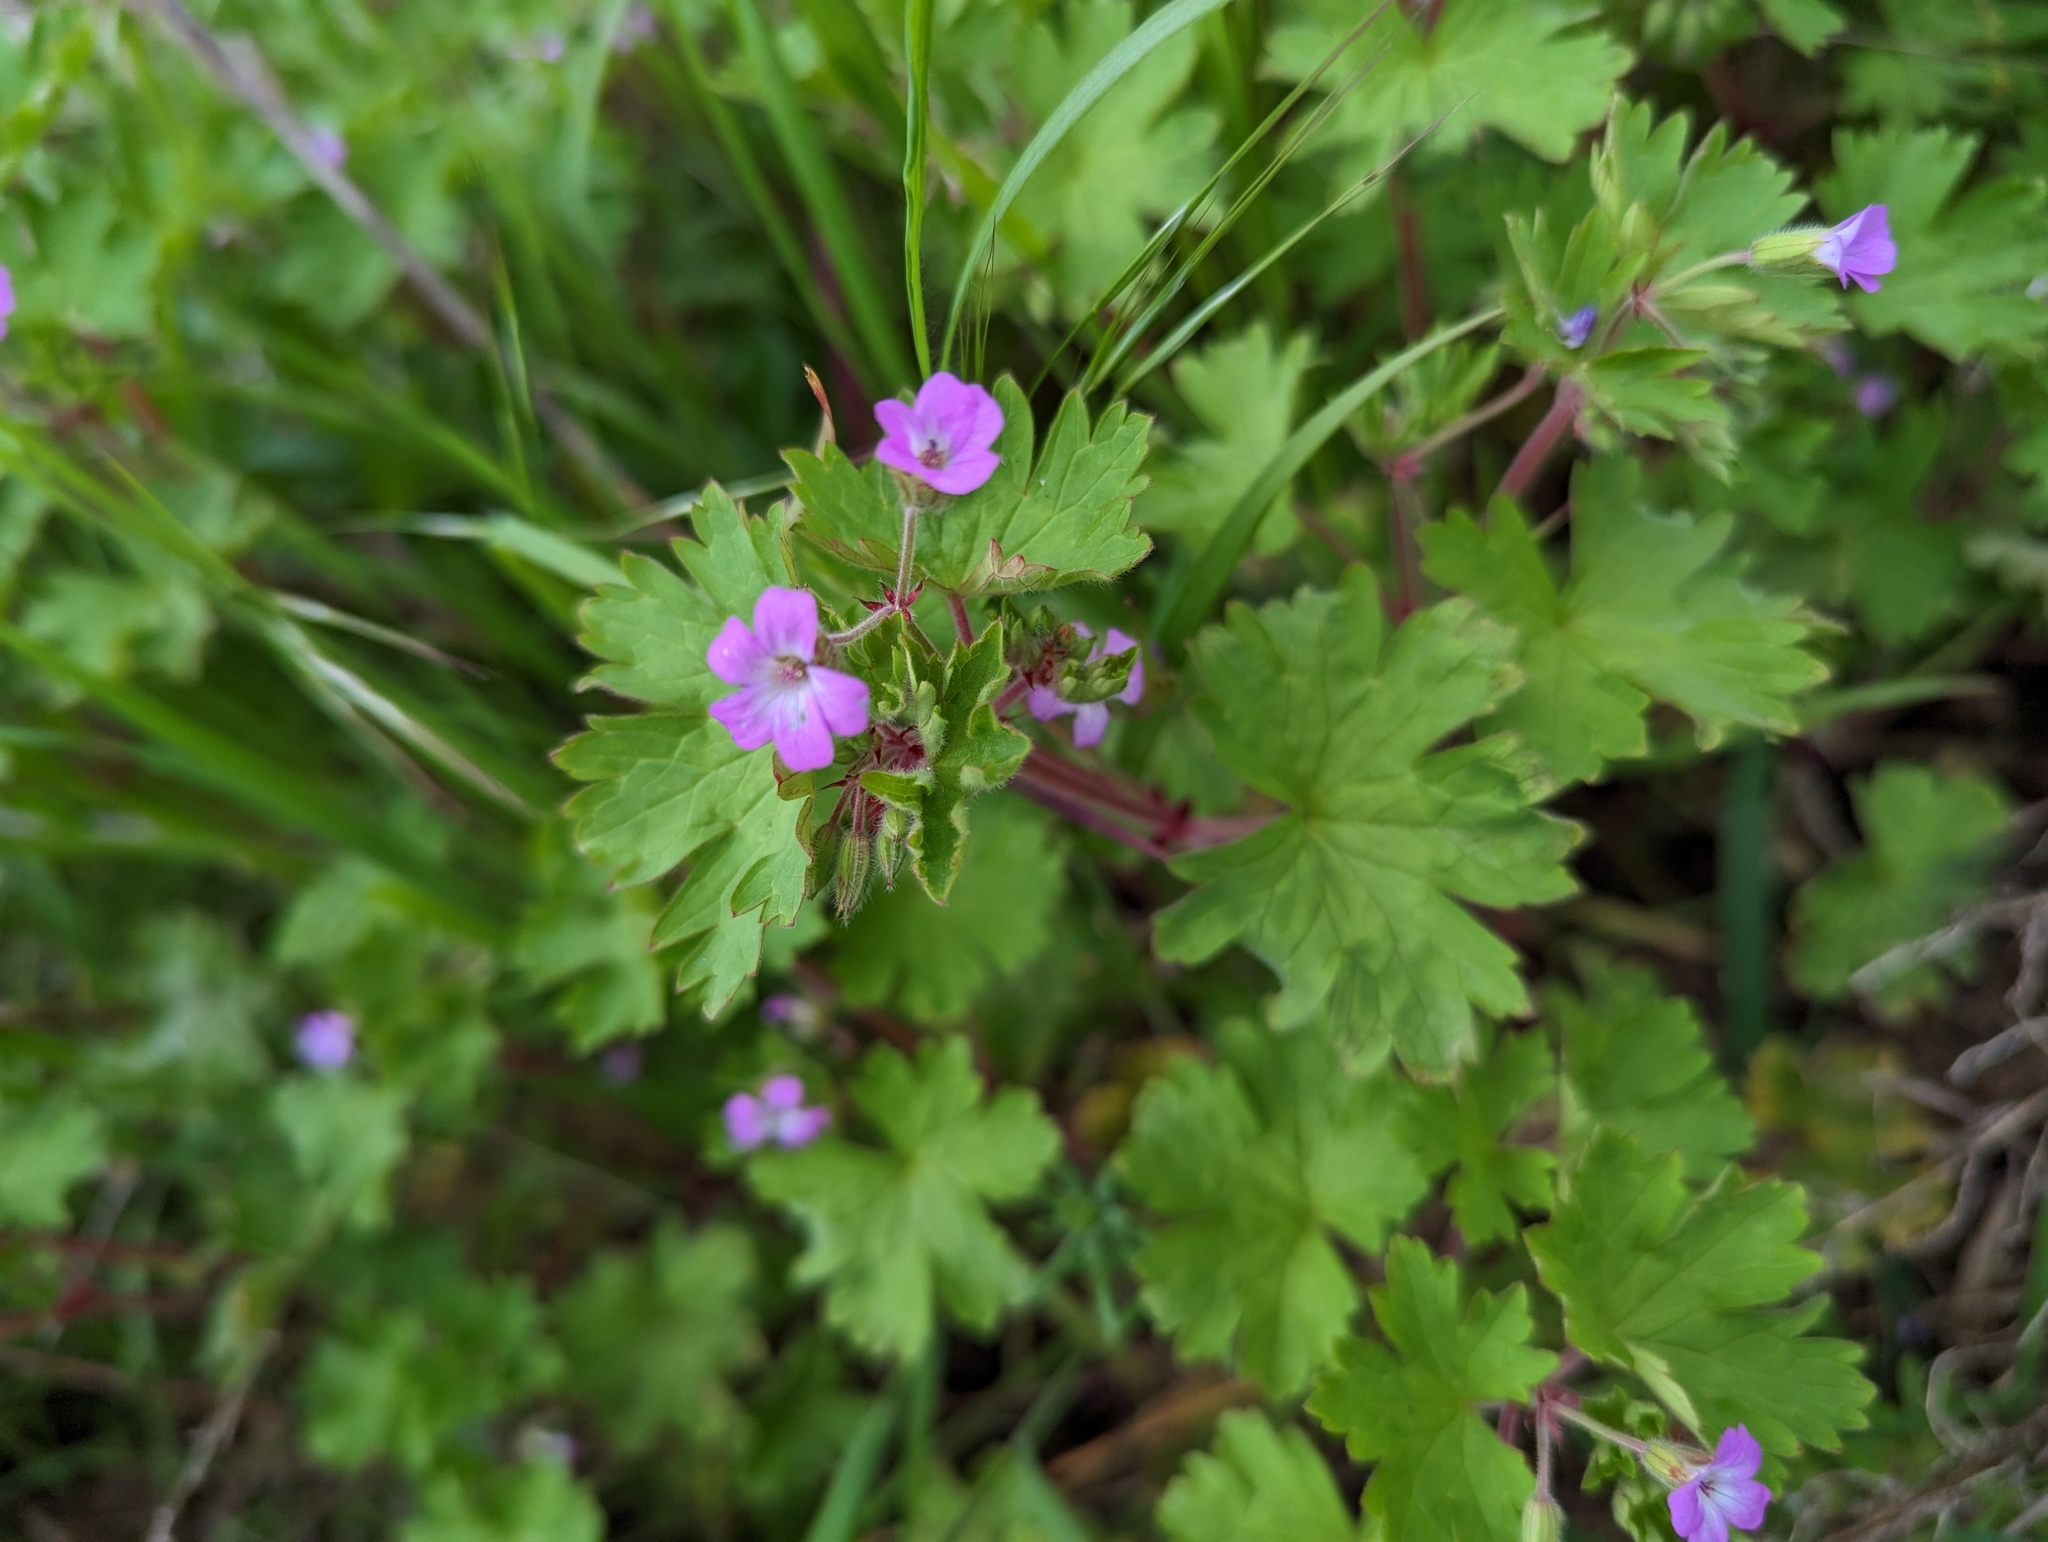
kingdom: Plantae
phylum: Tracheophyta
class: Magnoliopsida
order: Geraniales
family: Geraniaceae
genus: Geranium
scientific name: Geranium rotundifolium
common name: Round-leaved crane's-bill
